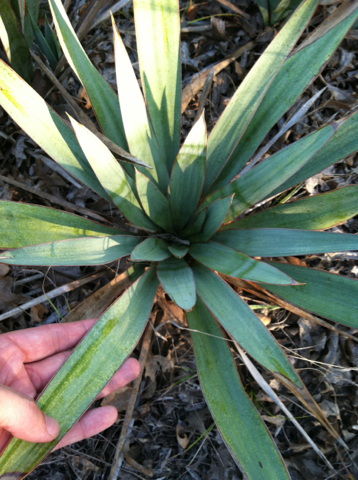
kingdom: Plantae
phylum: Tracheophyta
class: Liliopsida
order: Asparagales
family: Asparagaceae
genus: Yucca
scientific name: Yucca pallida
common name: Pale leaf yucca
